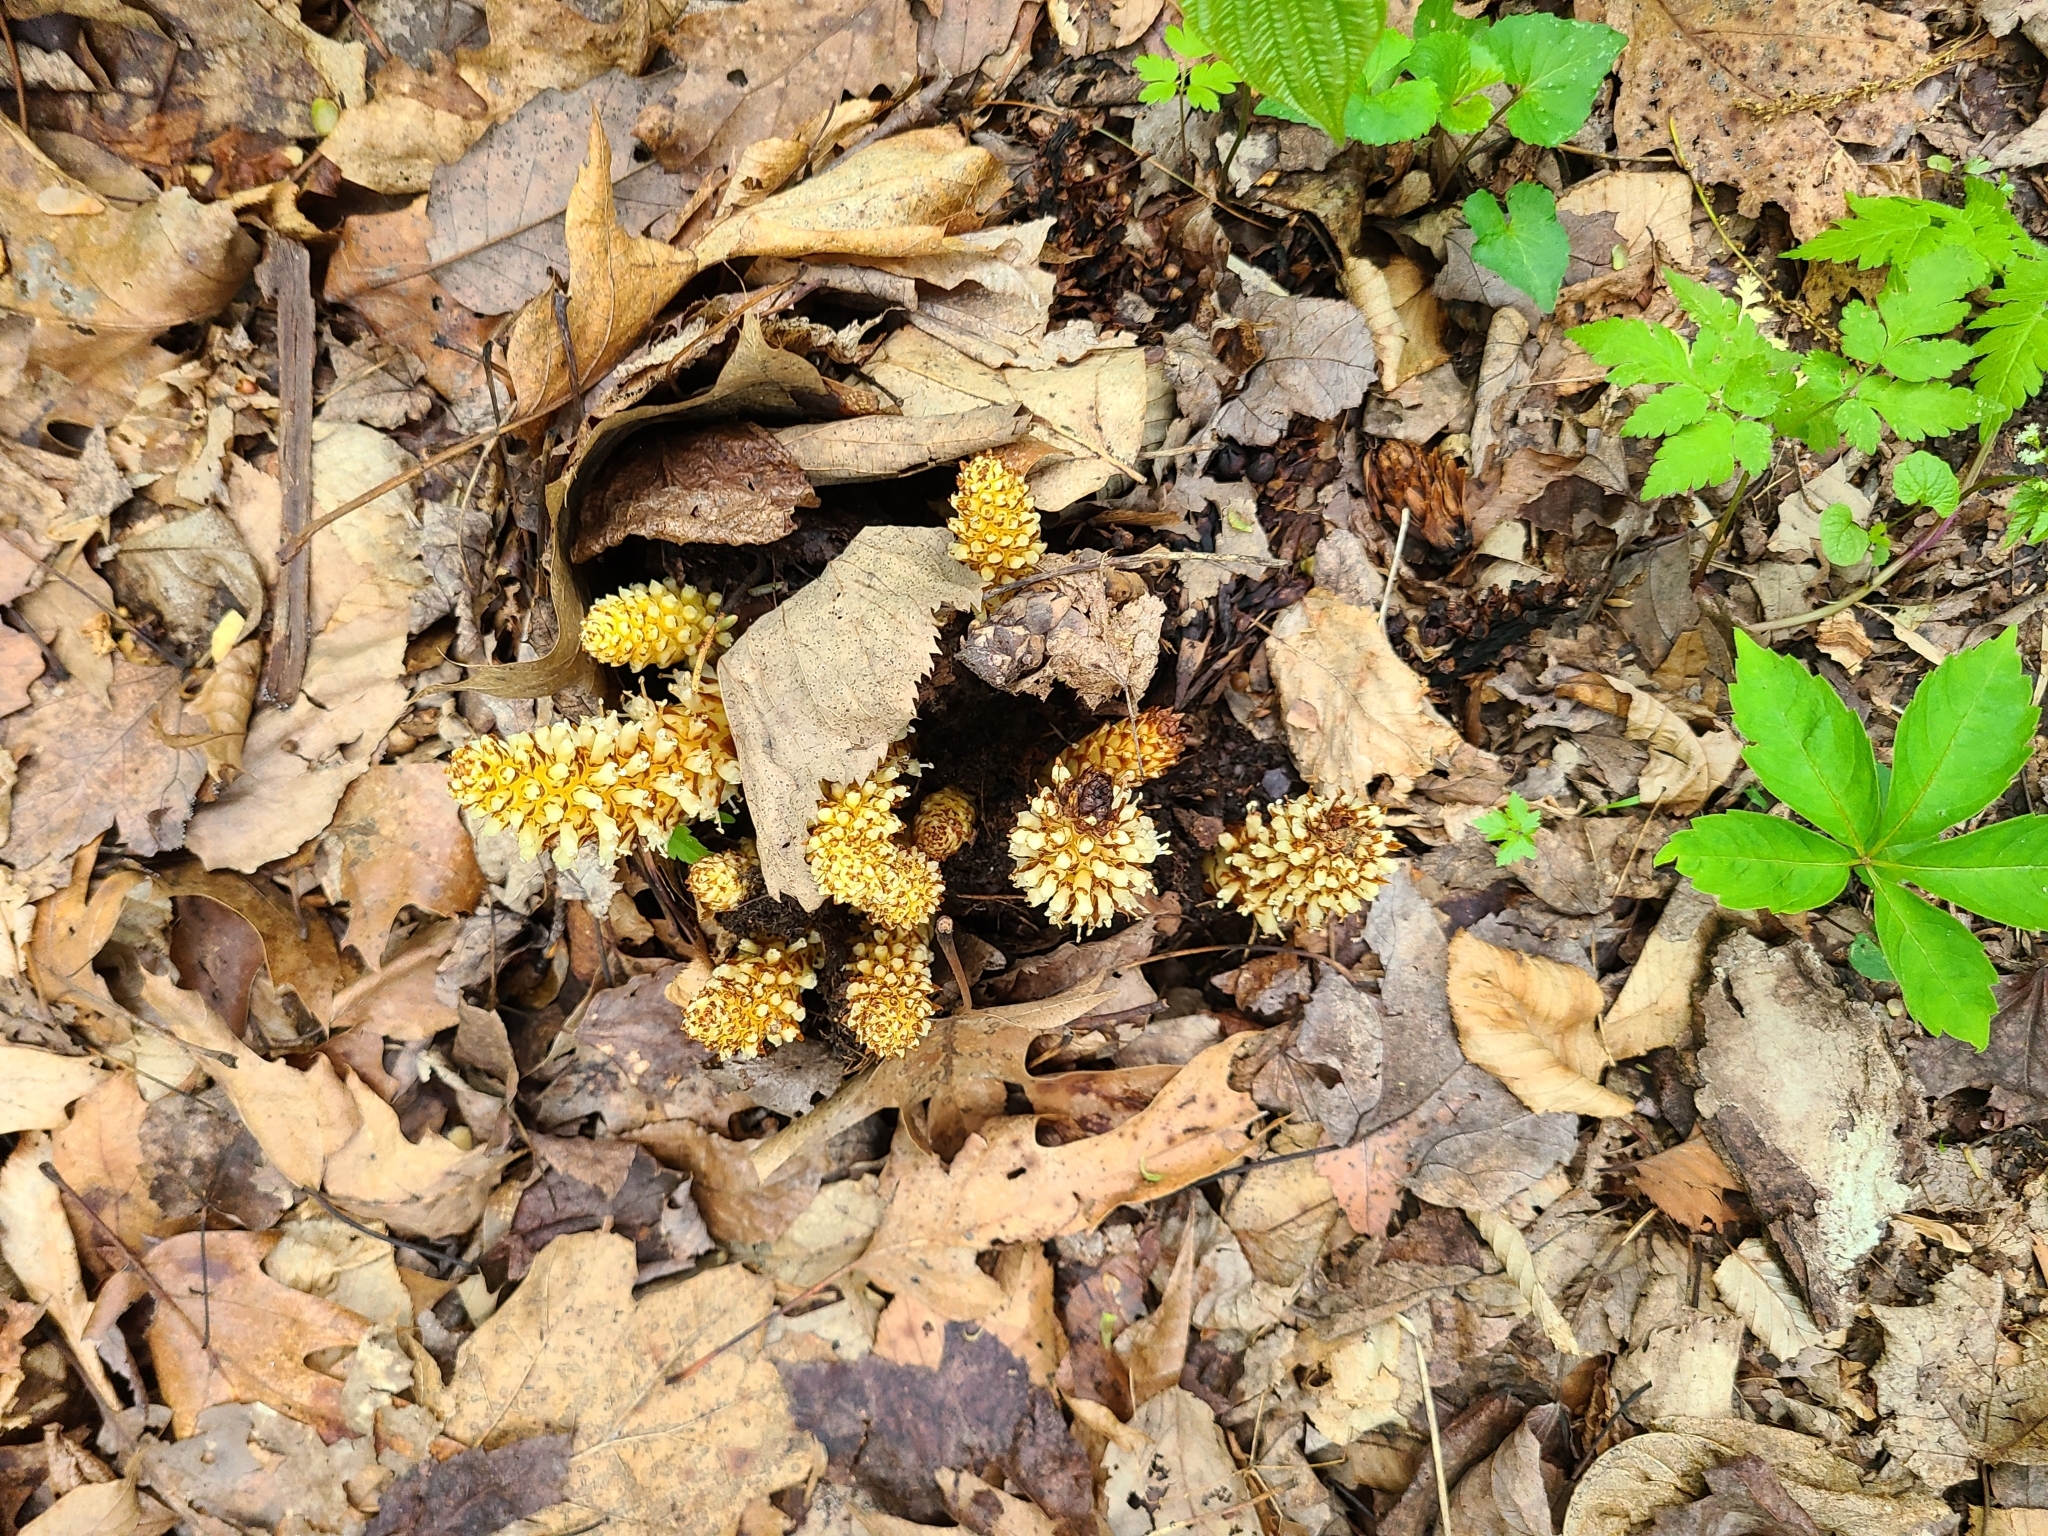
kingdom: Plantae
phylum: Tracheophyta
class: Magnoliopsida
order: Lamiales
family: Orobanchaceae
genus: Conopholis
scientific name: Conopholis americana
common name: American cancer-root
